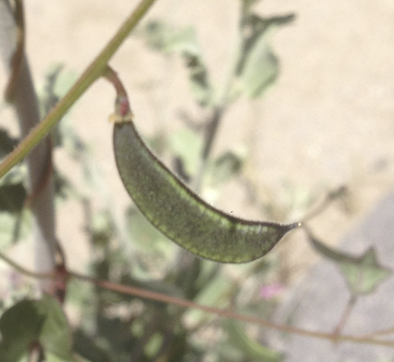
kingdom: Plantae
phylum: Tracheophyta
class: Magnoliopsida
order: Fabales
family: Fabaceae
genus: Phaseolus
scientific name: Phaseolus filiformis
